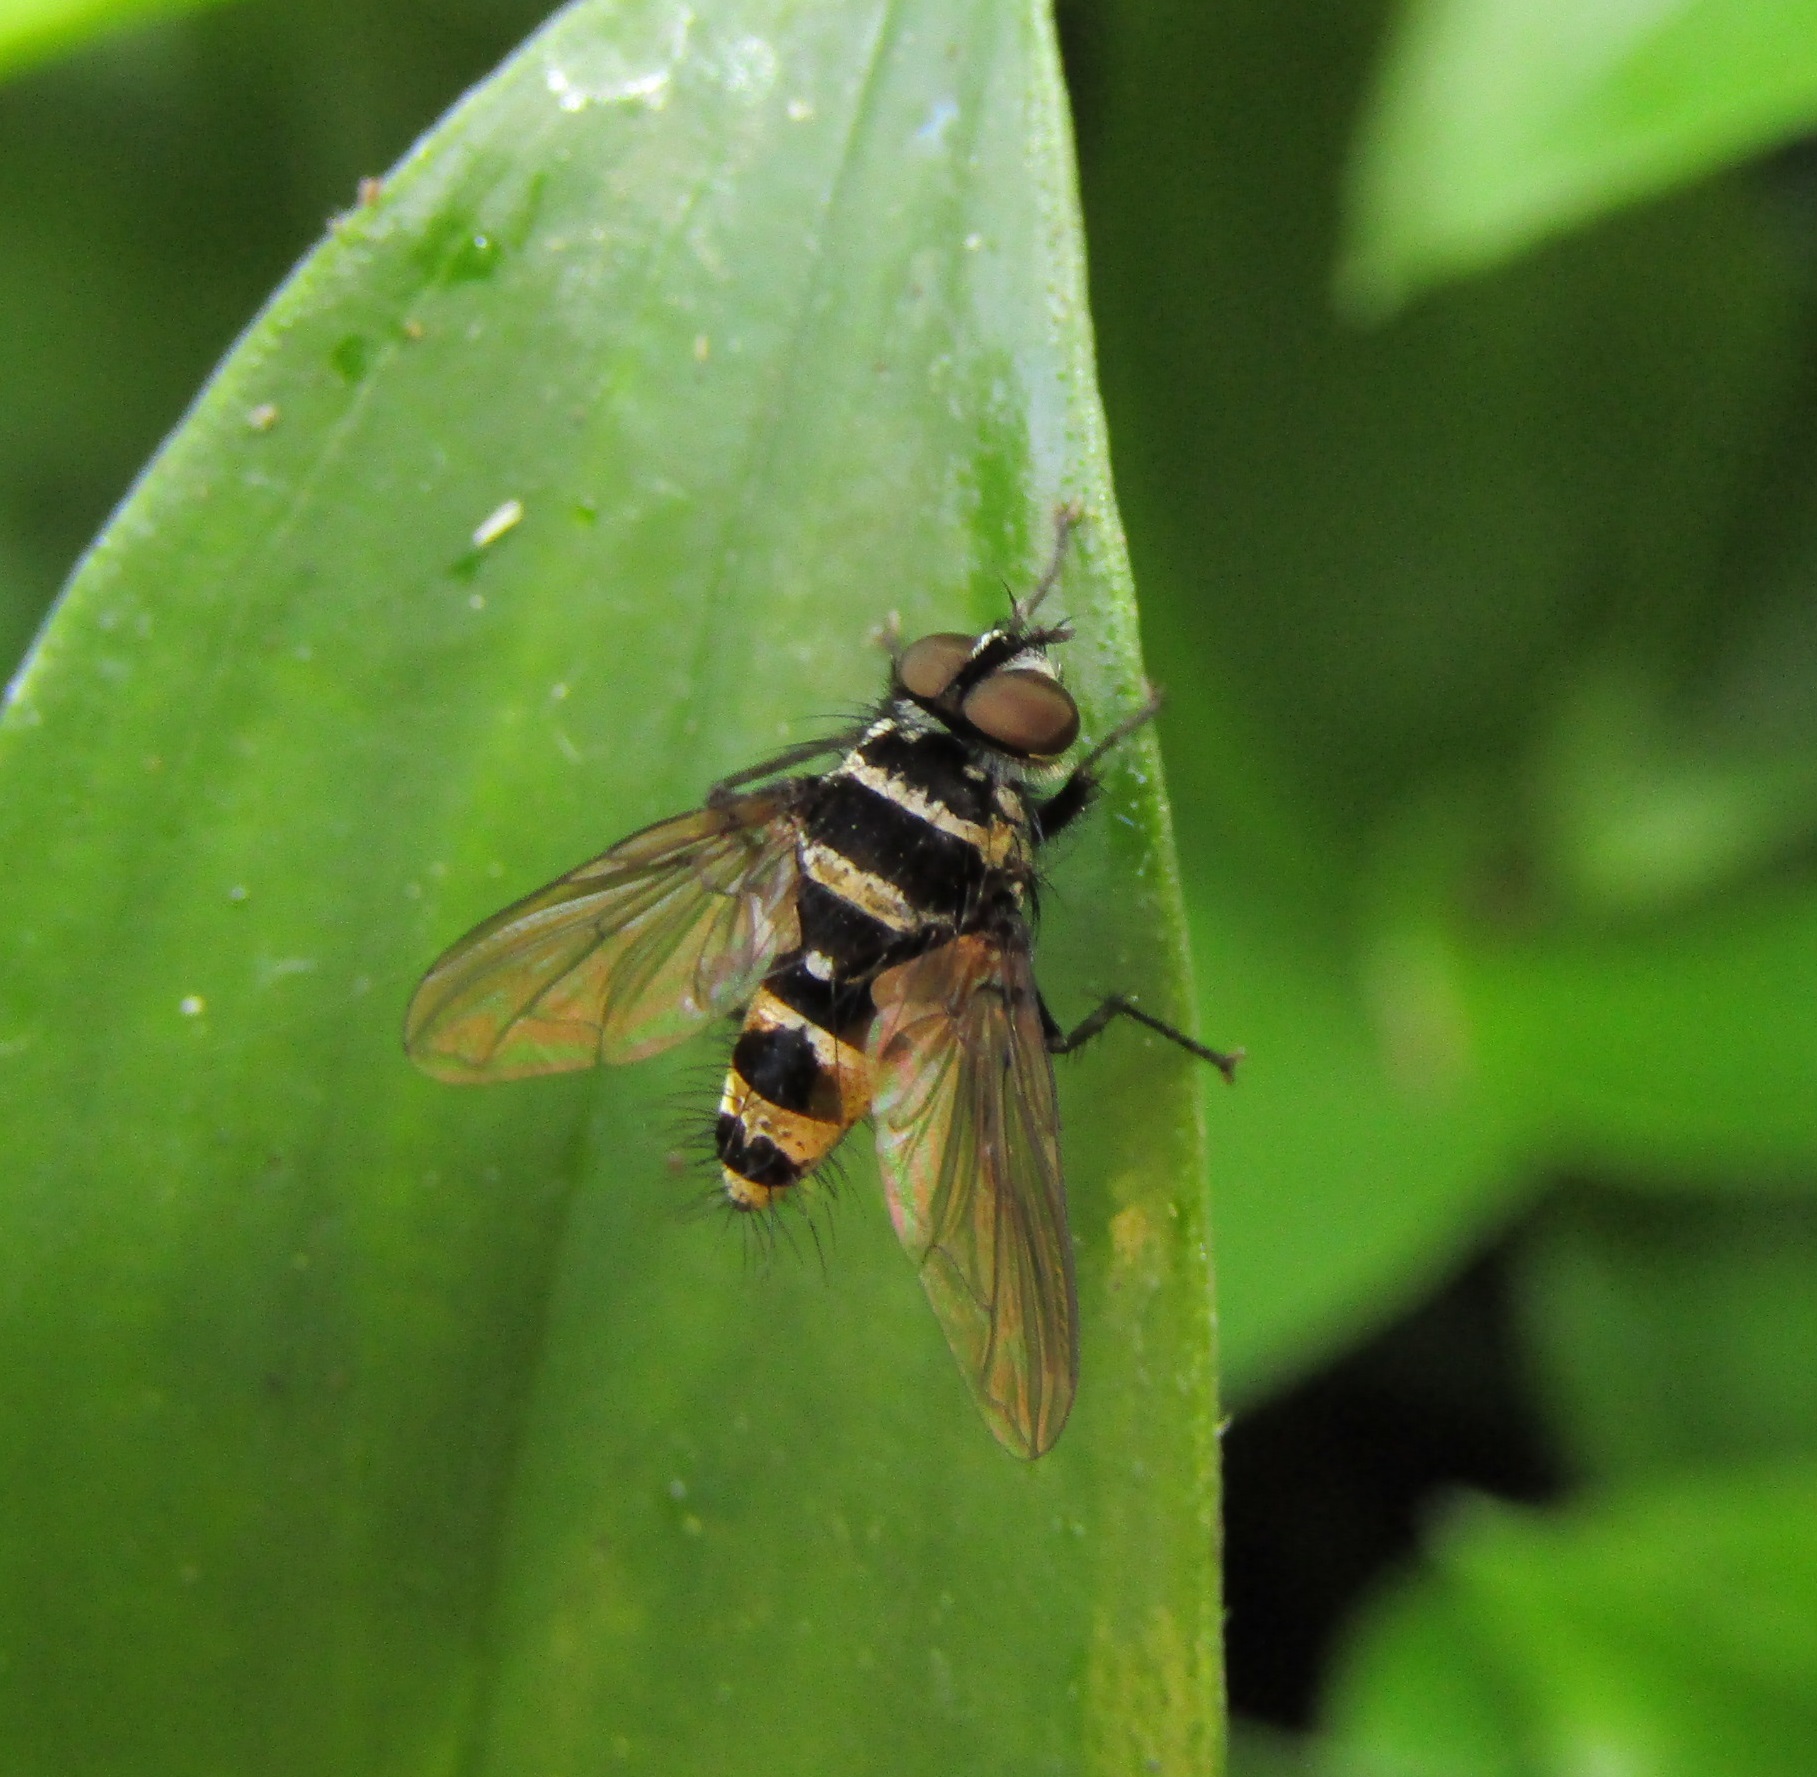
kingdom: Animalia
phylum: Arthropoda
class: Insecta
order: Diptera
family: Tachinidae
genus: Trigonospila
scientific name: Trigonospila brevifacies
